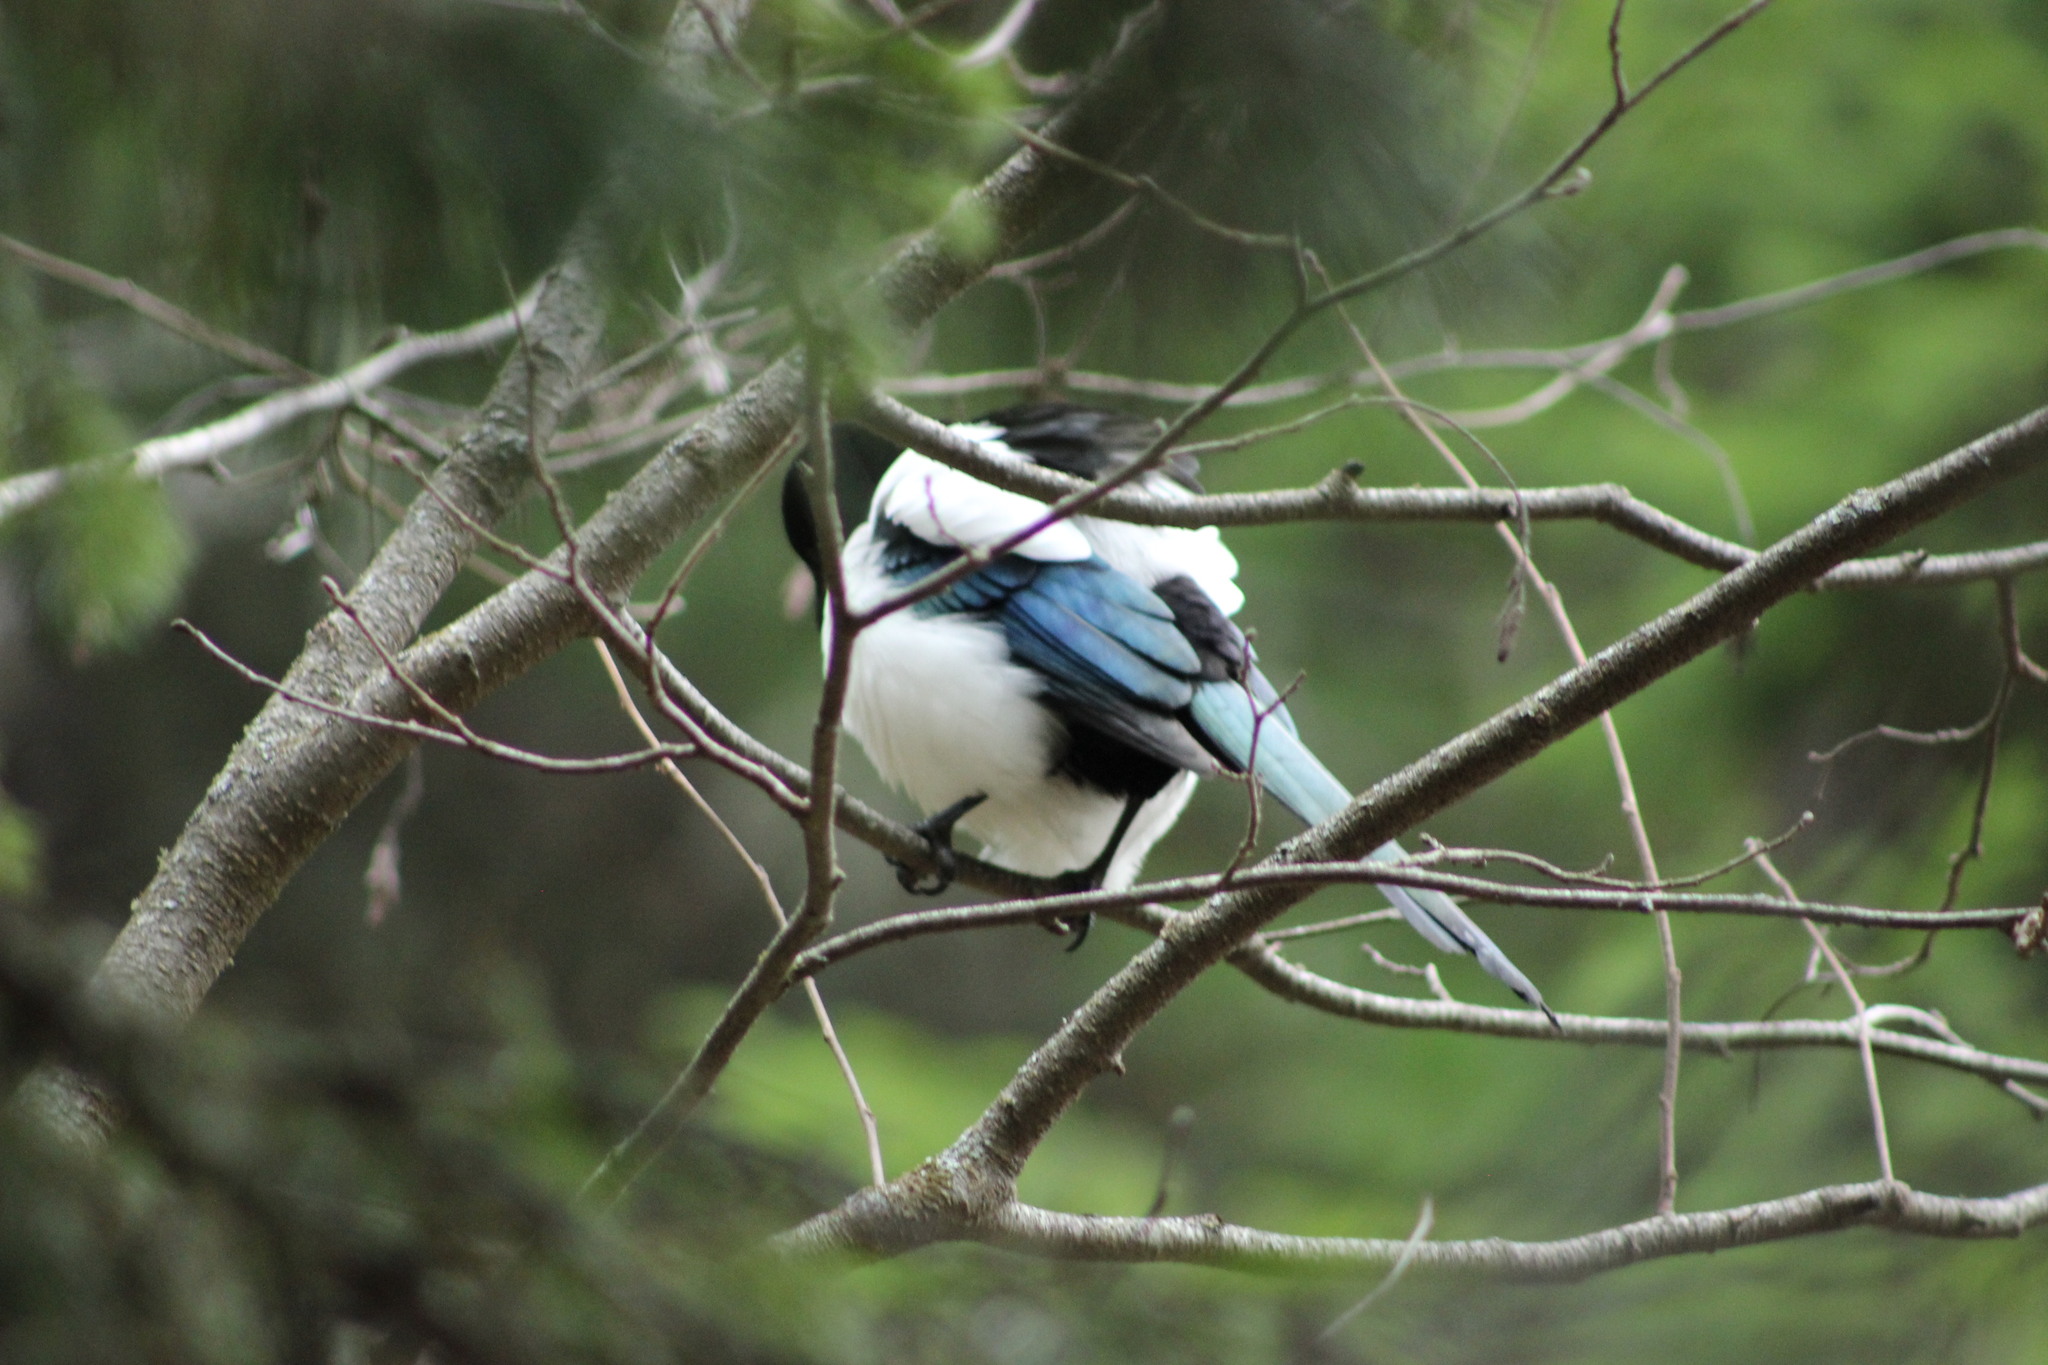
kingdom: Animalia
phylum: Chordata
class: Aves
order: Passeriformes
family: Corvidae
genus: Pica
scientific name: Pica pica
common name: Eurasian magpie
